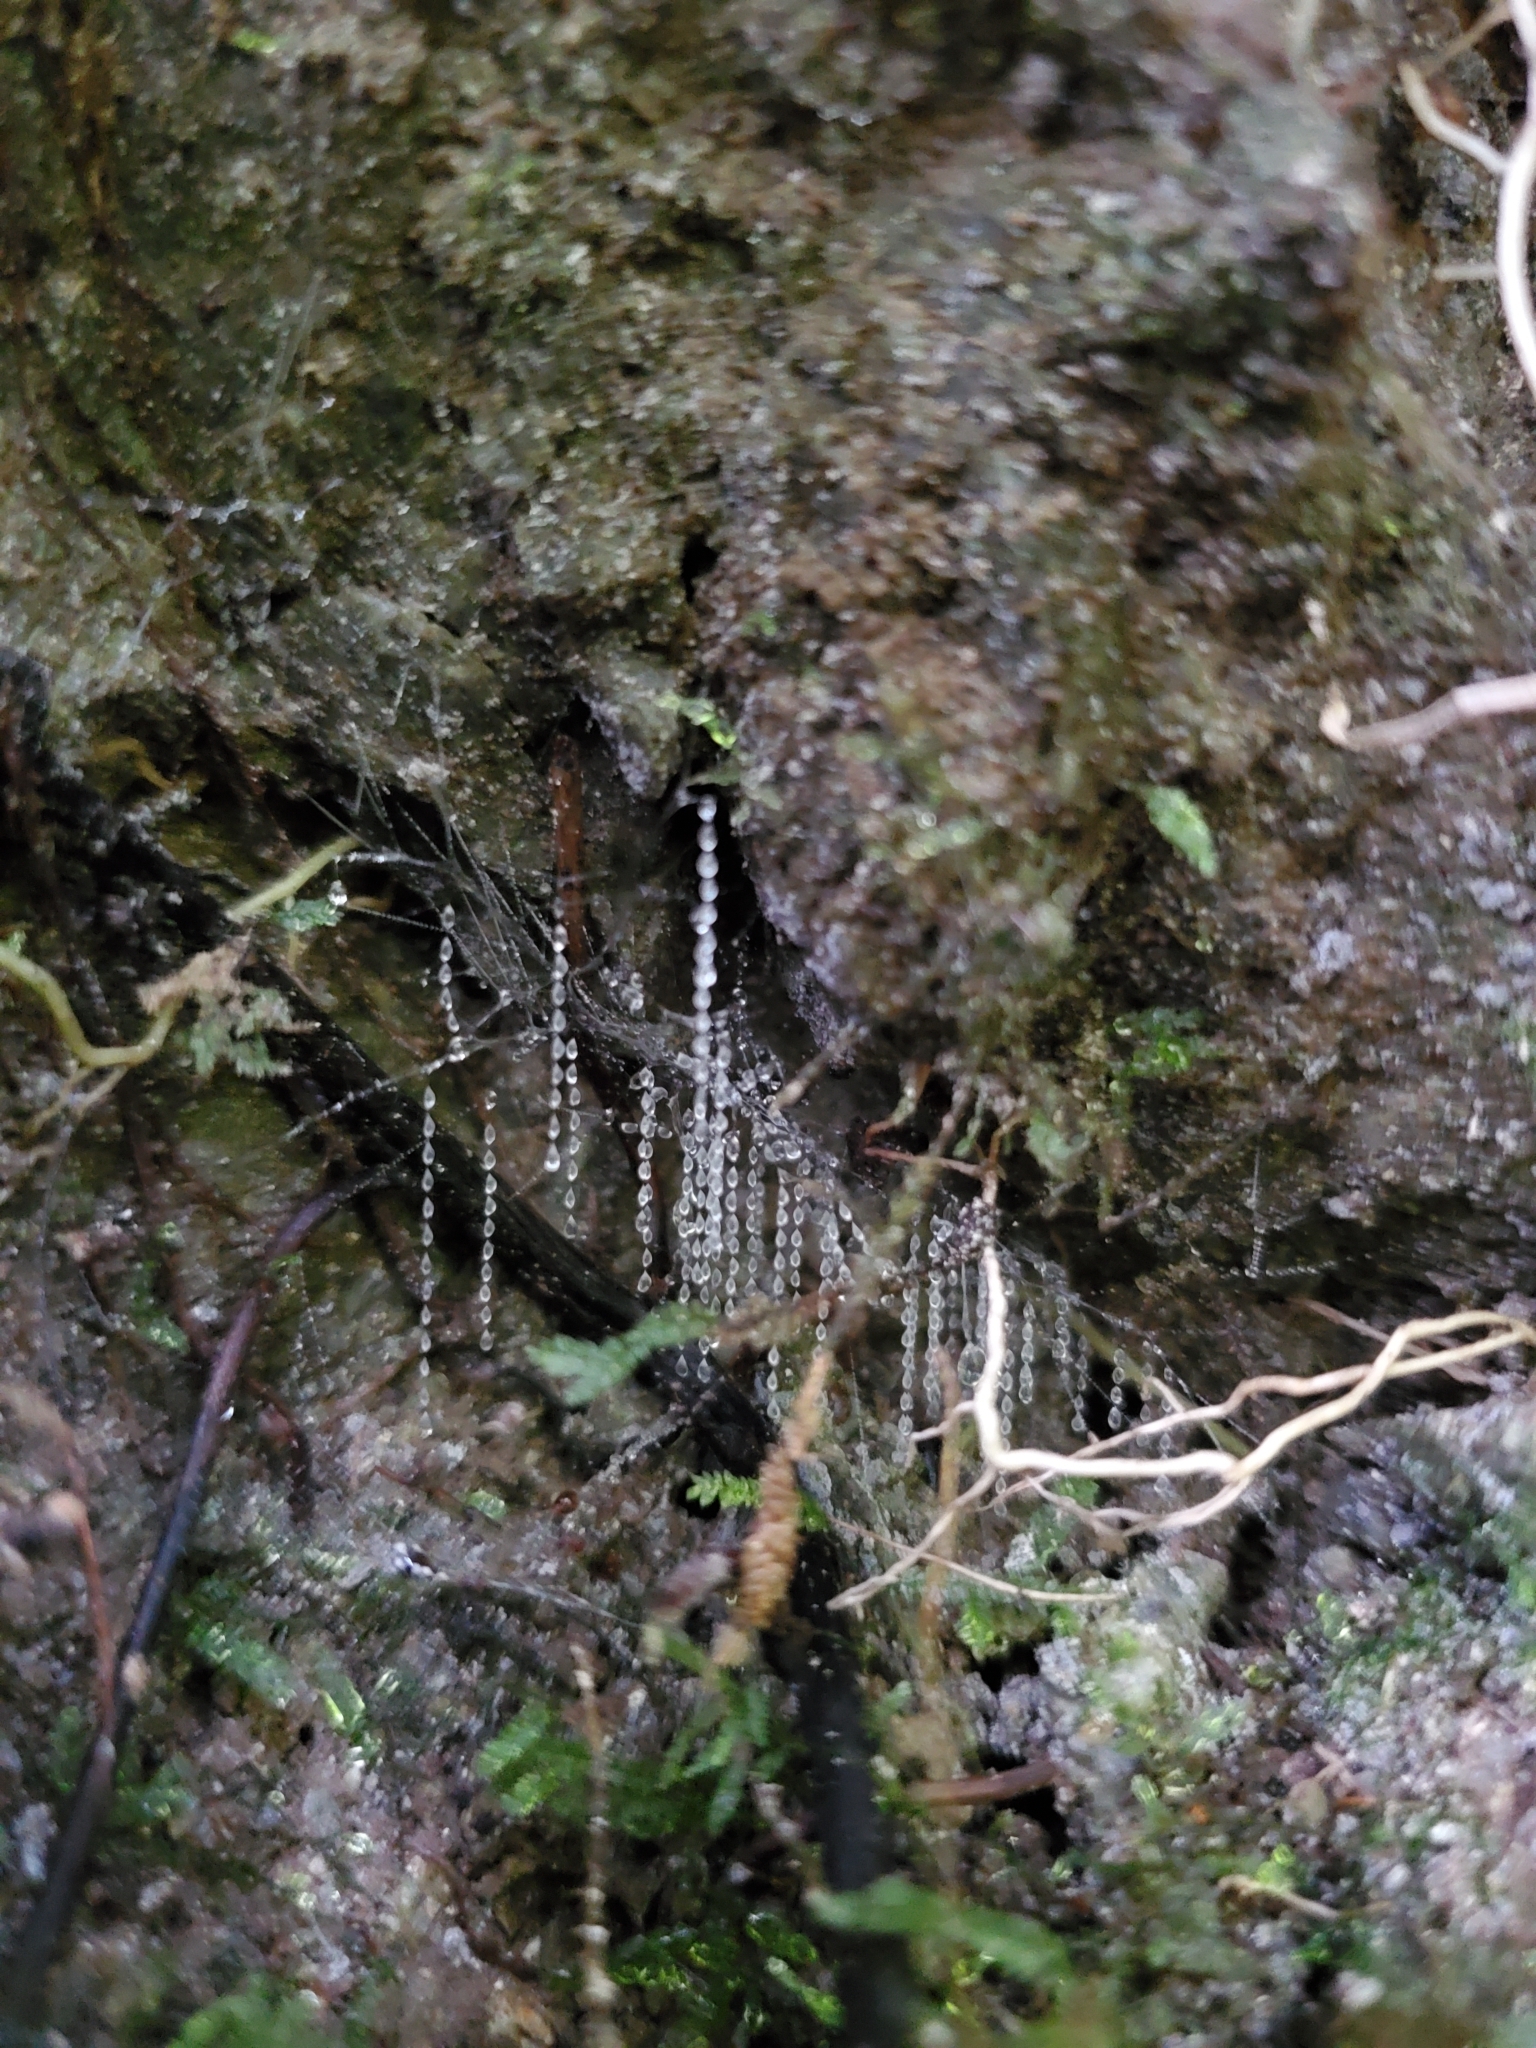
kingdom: Animalia
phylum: Arthropoda
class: Insecta
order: Diptera
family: Keroplatidae
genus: Arachnocampa
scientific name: Arachnocampa luminosa
